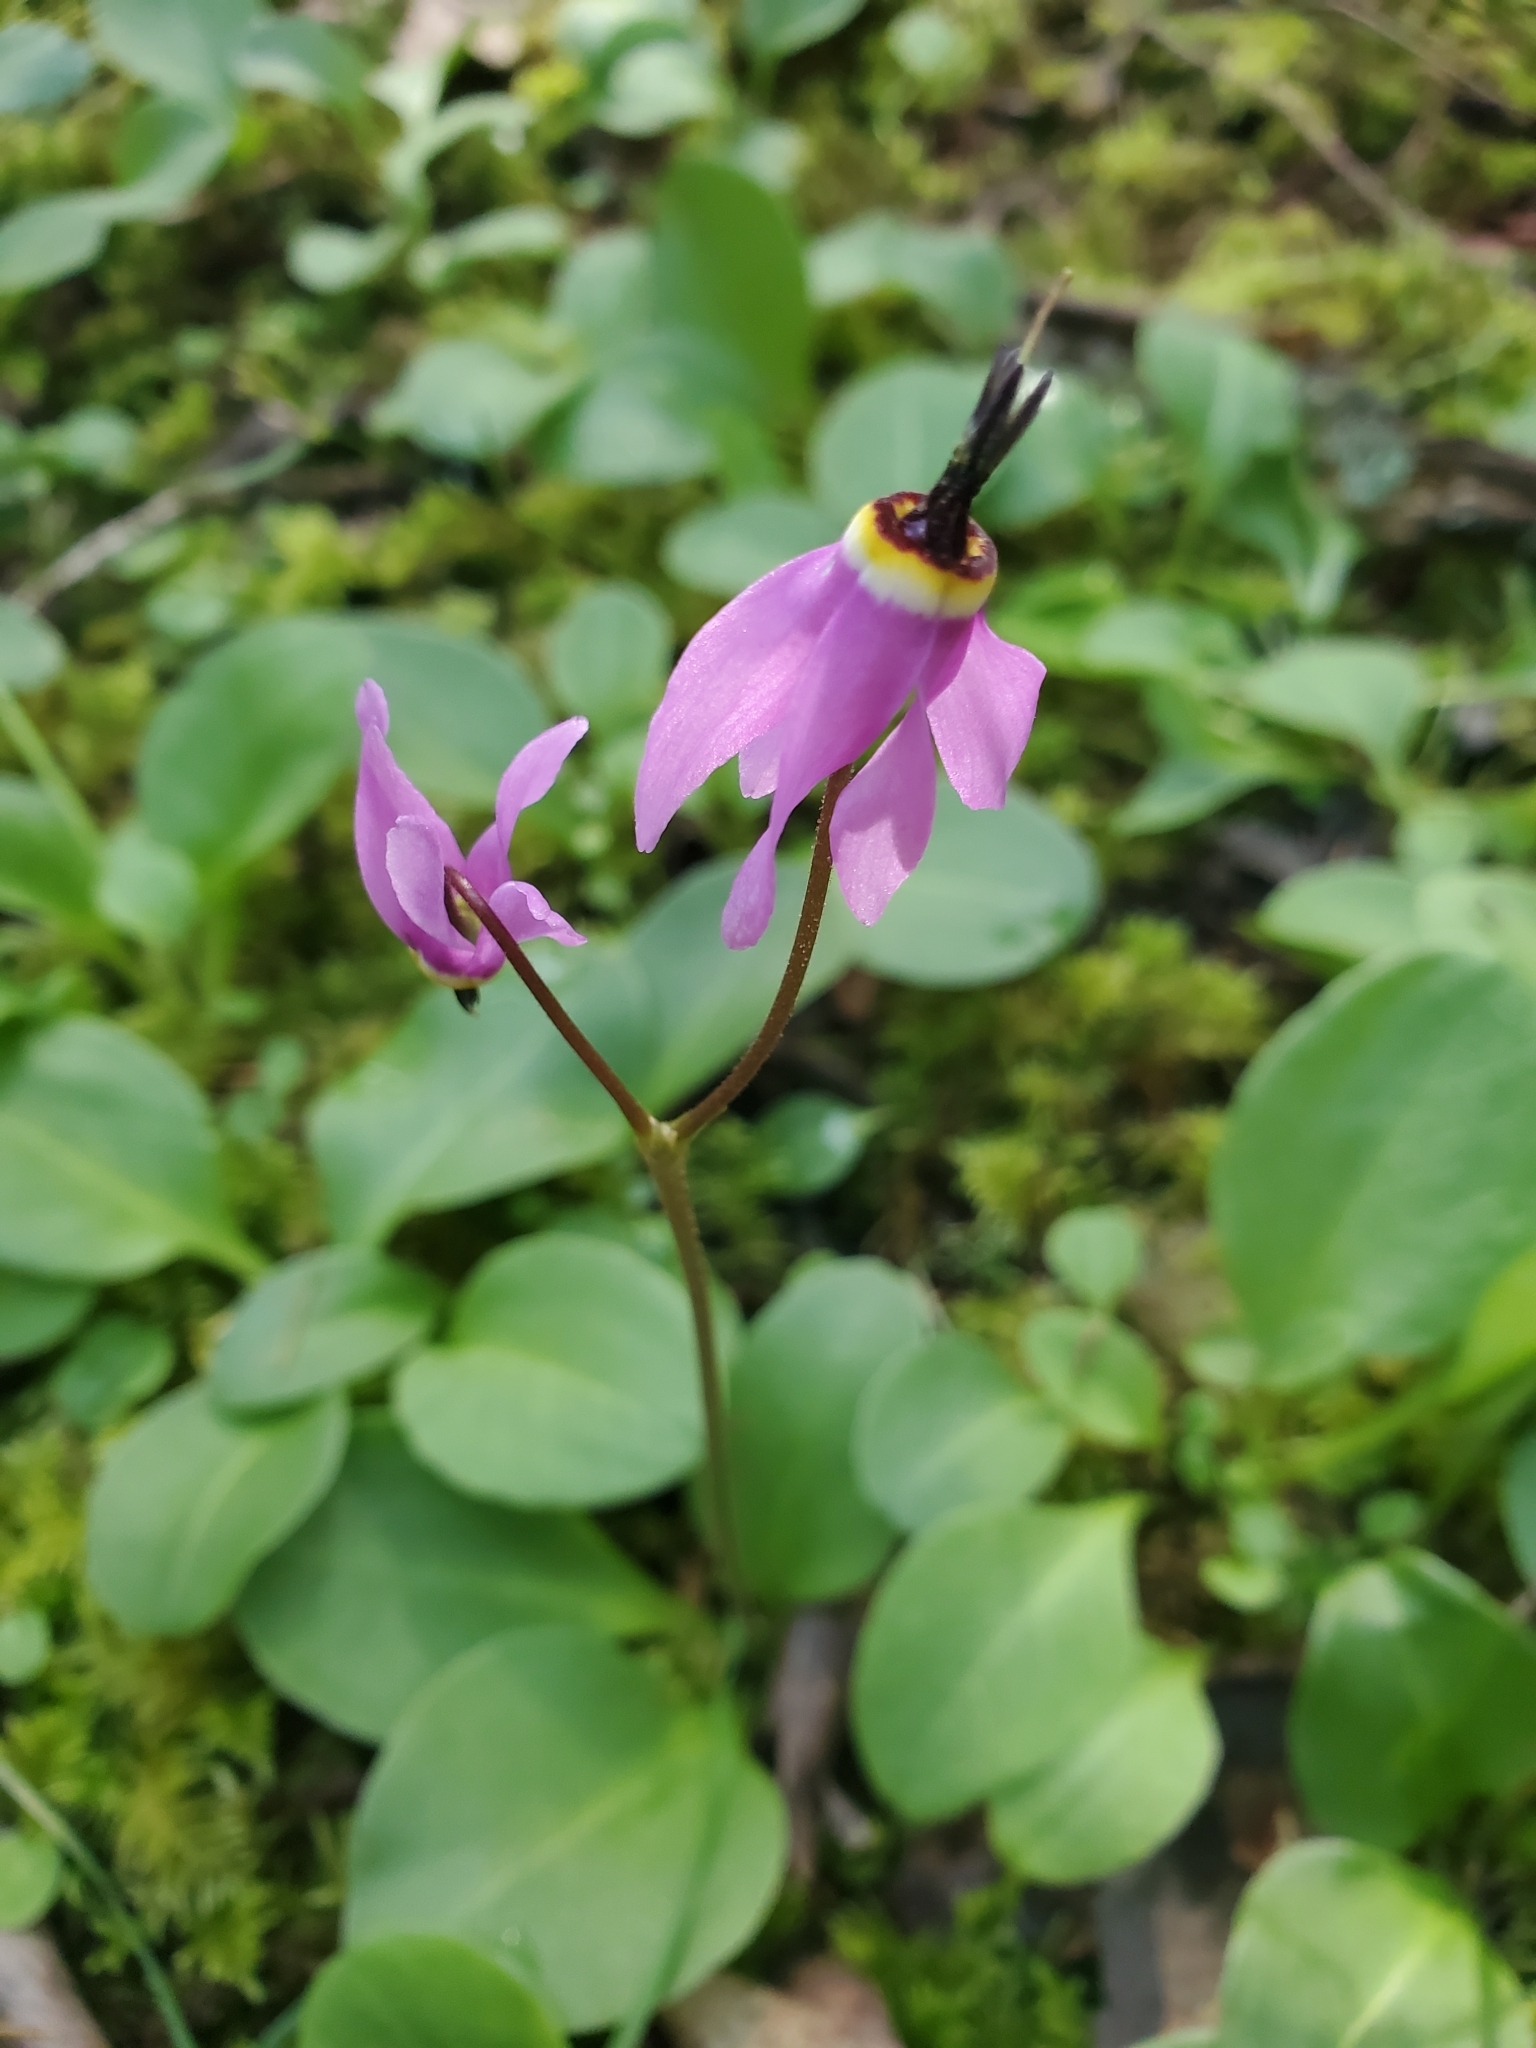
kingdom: Plantae
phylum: Tracheophyta
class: Magnoliopsida
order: Ericales
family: Primulaceae
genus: Dodecatheon
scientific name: Dodecatheon hendersonii
